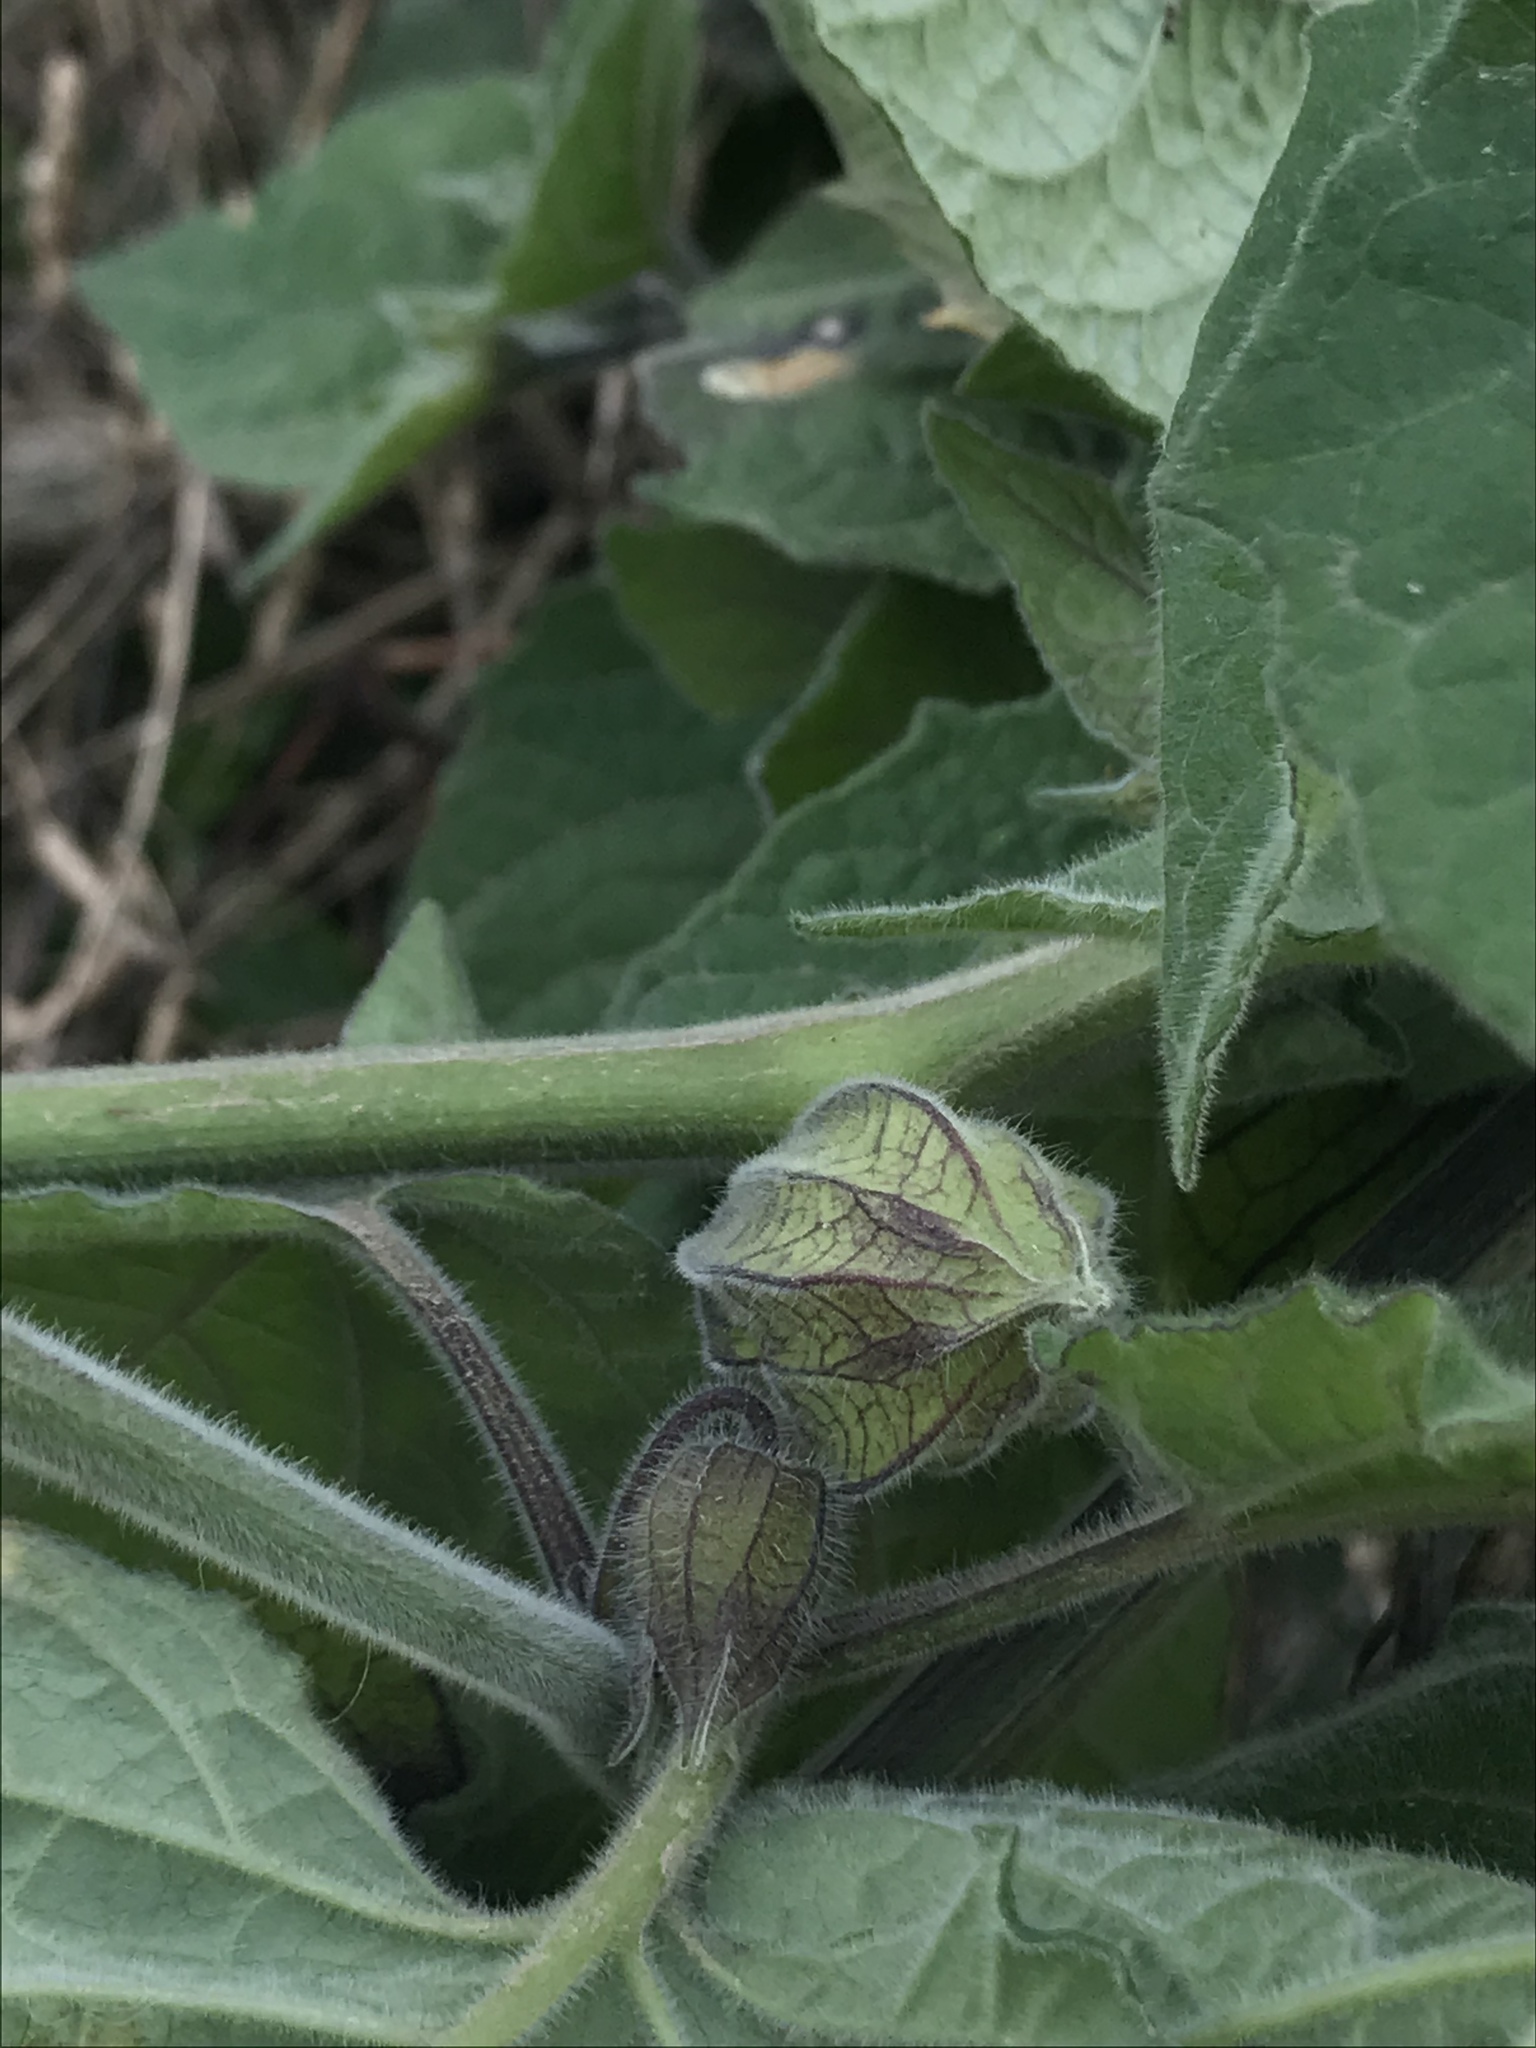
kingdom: Plantae
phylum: Tracheophyta
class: Magnoliopsida
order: Solanales
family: Solanaceae
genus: Physalis
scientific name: Physalis peruviana
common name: Cape-gooseberry
